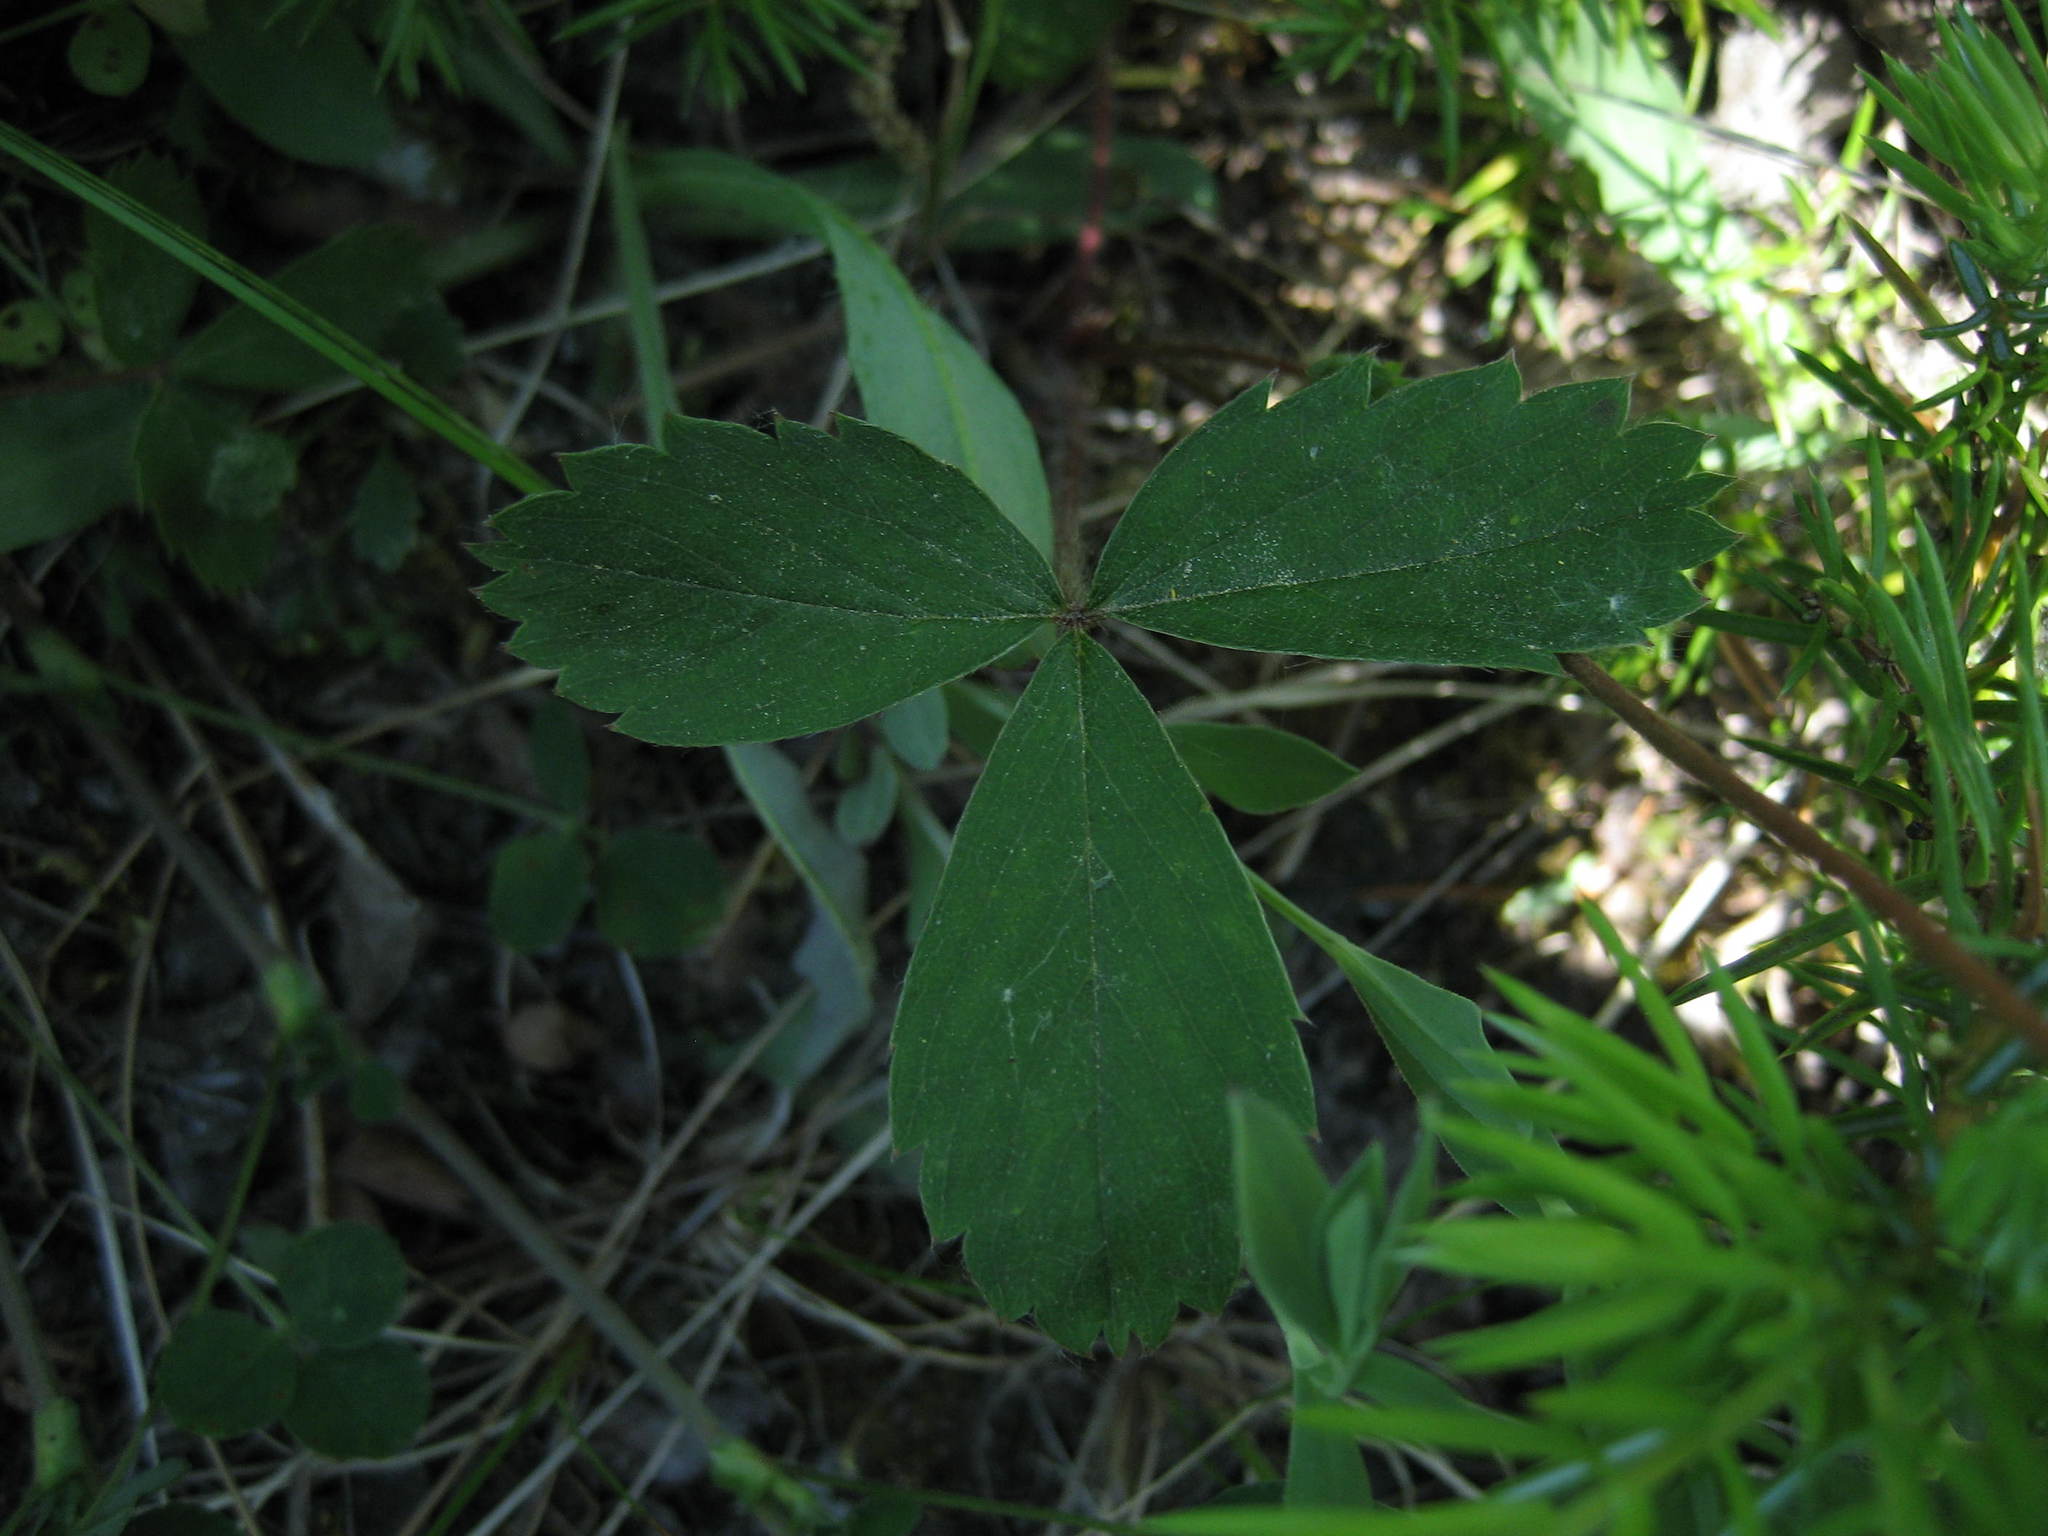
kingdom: Plantae
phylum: Tracheophyta
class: Magnoliopsida
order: Rosales
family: Rosaceae
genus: Fragaria
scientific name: Fragaria virginiana
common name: Thickleaved wild strawberry
